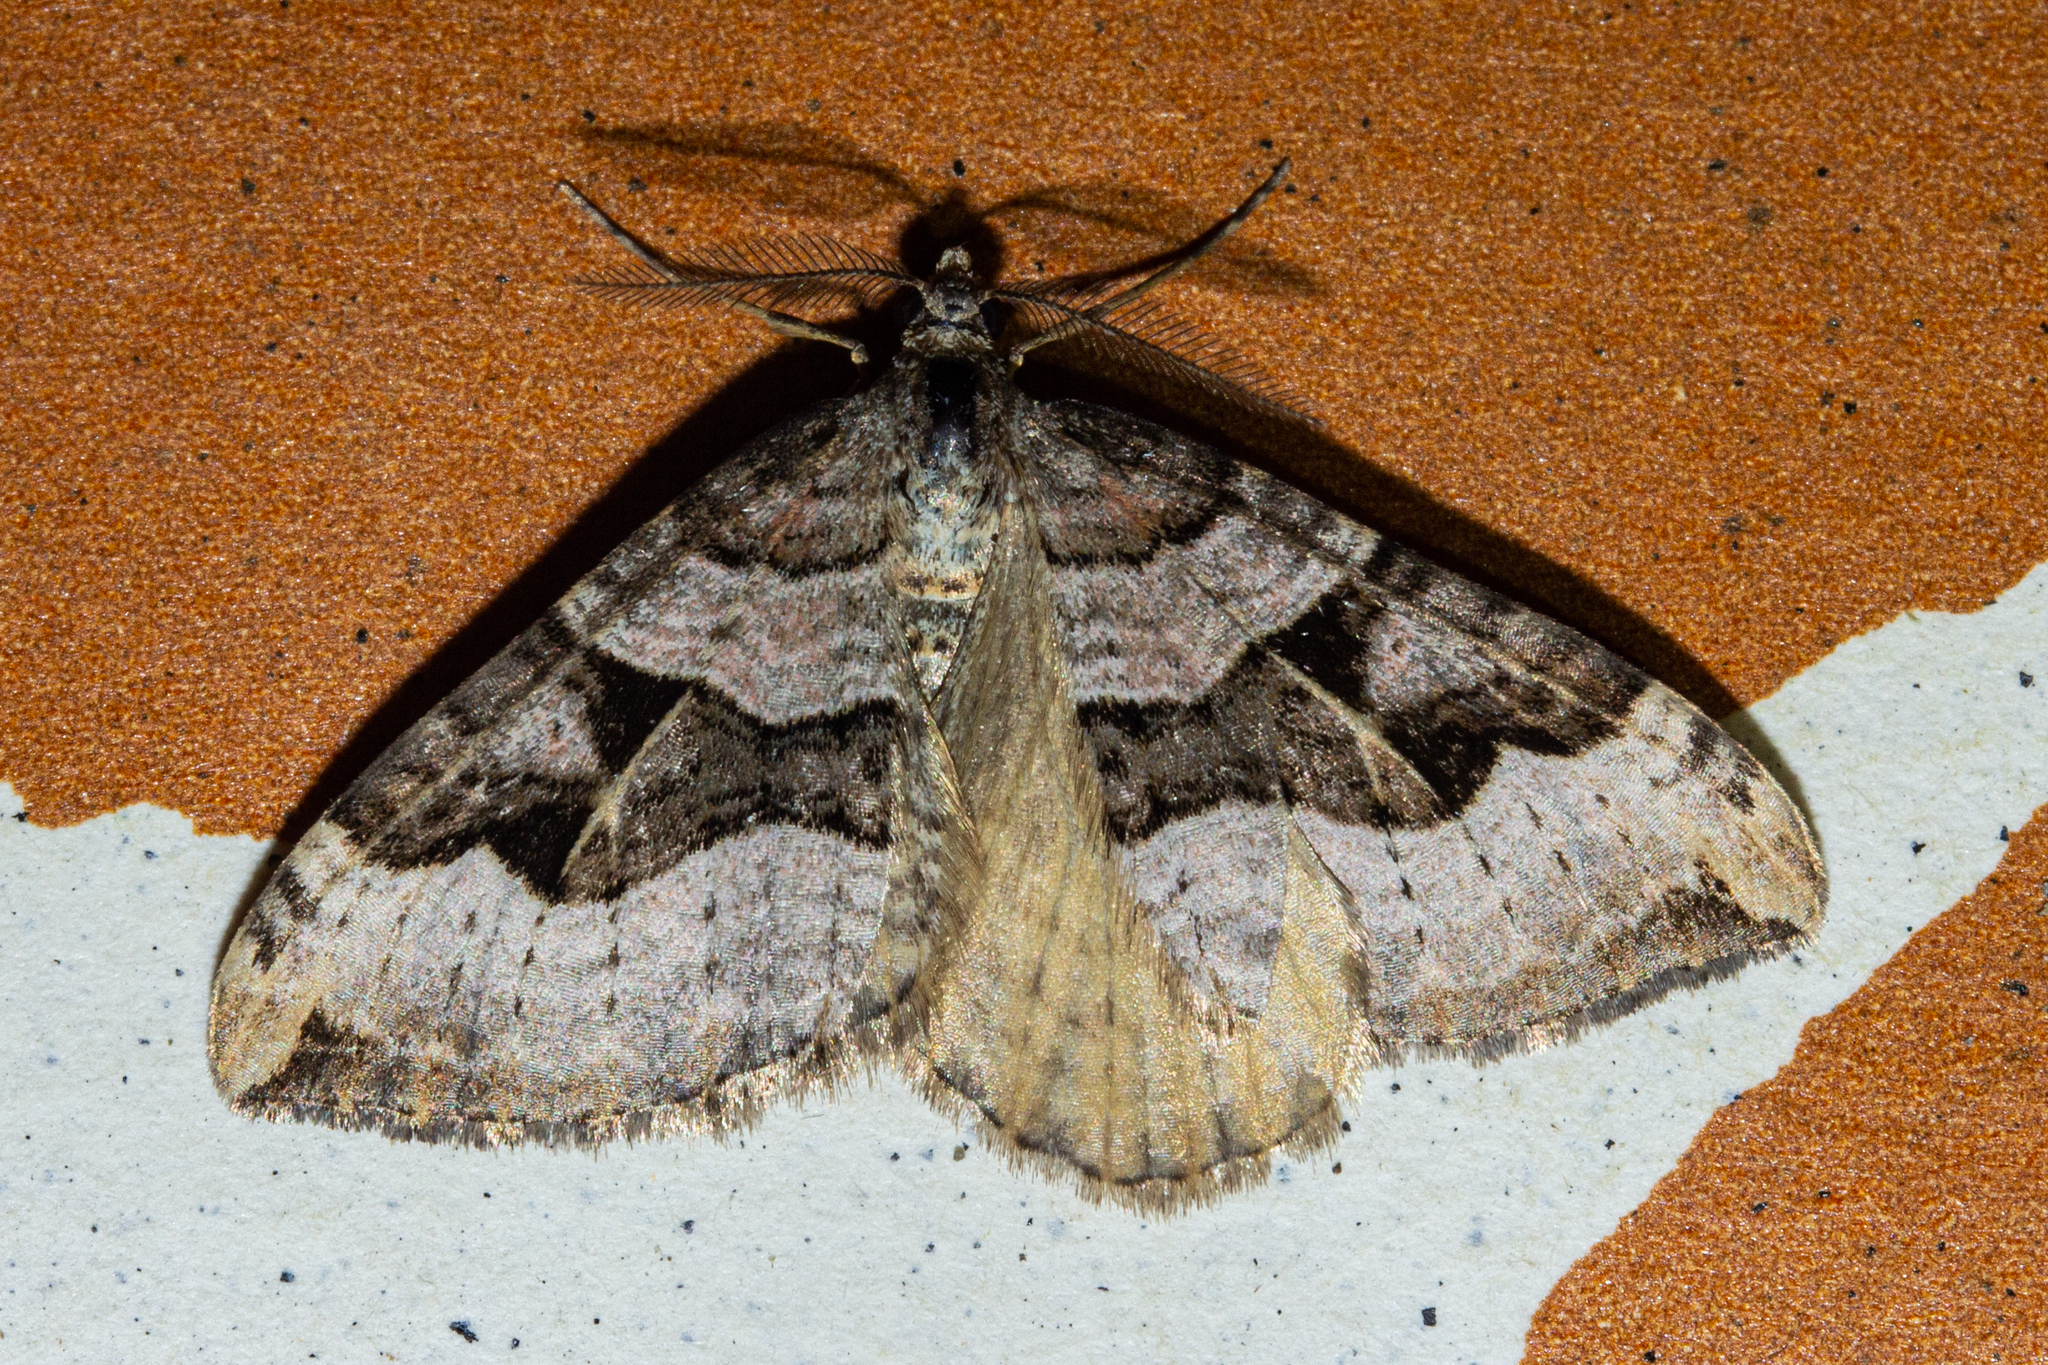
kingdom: Animalia
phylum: Arthropoda
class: Insecta
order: Lepidoptera
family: Geometridae
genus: Xanthorhoe
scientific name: Xanthorhoe semifissata
